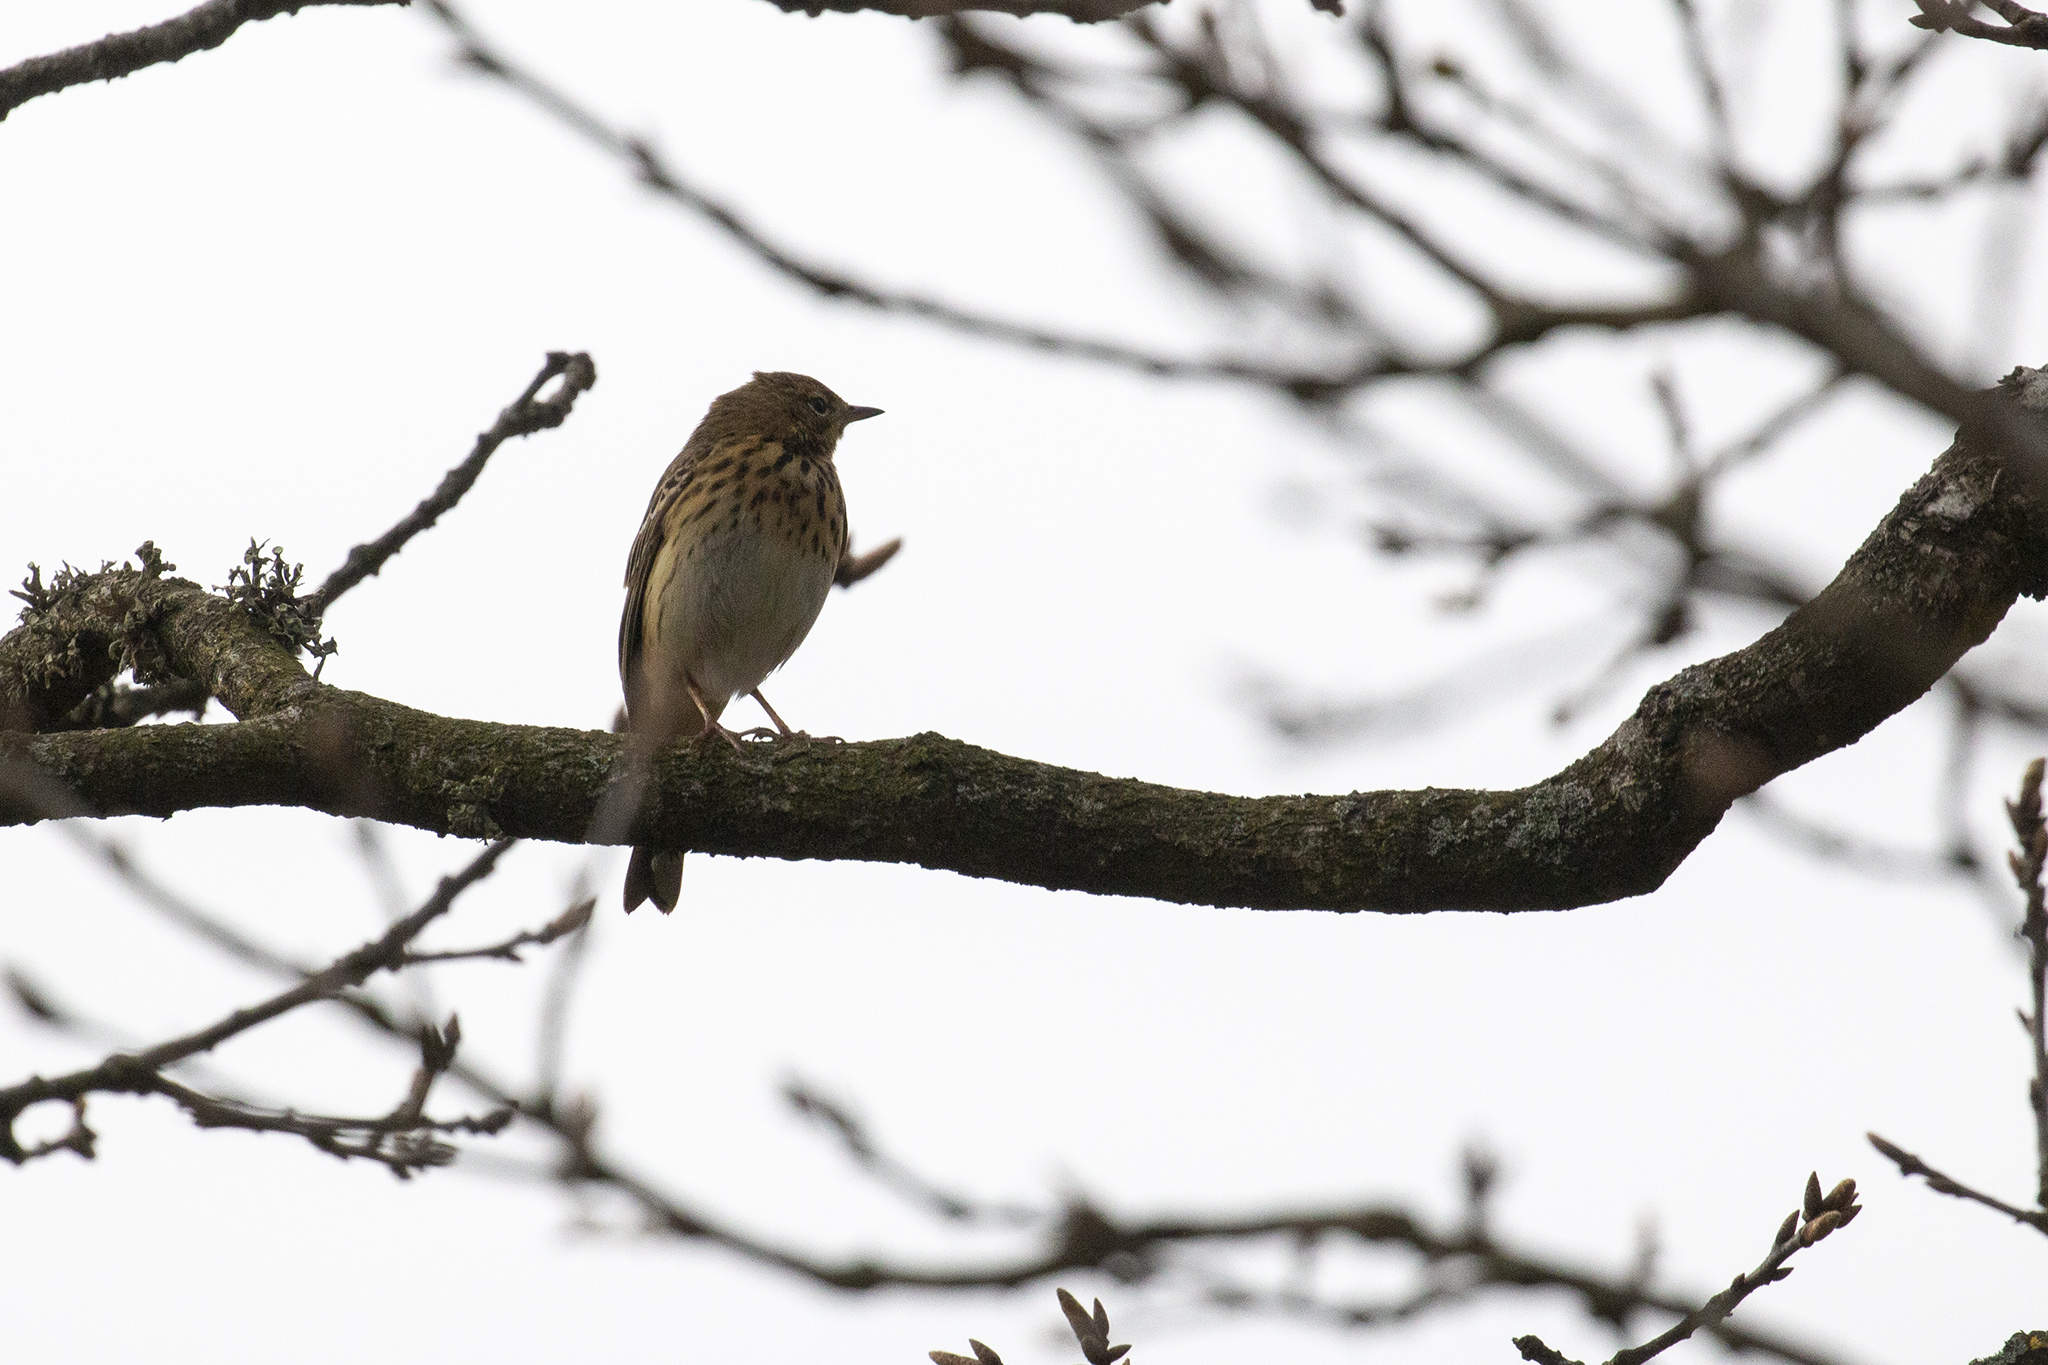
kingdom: Animalia
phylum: Chordata
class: Aves
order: Passeriformes
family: Motacillidae
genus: Anthus
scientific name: Anthus trivialis
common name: Tree pipit
